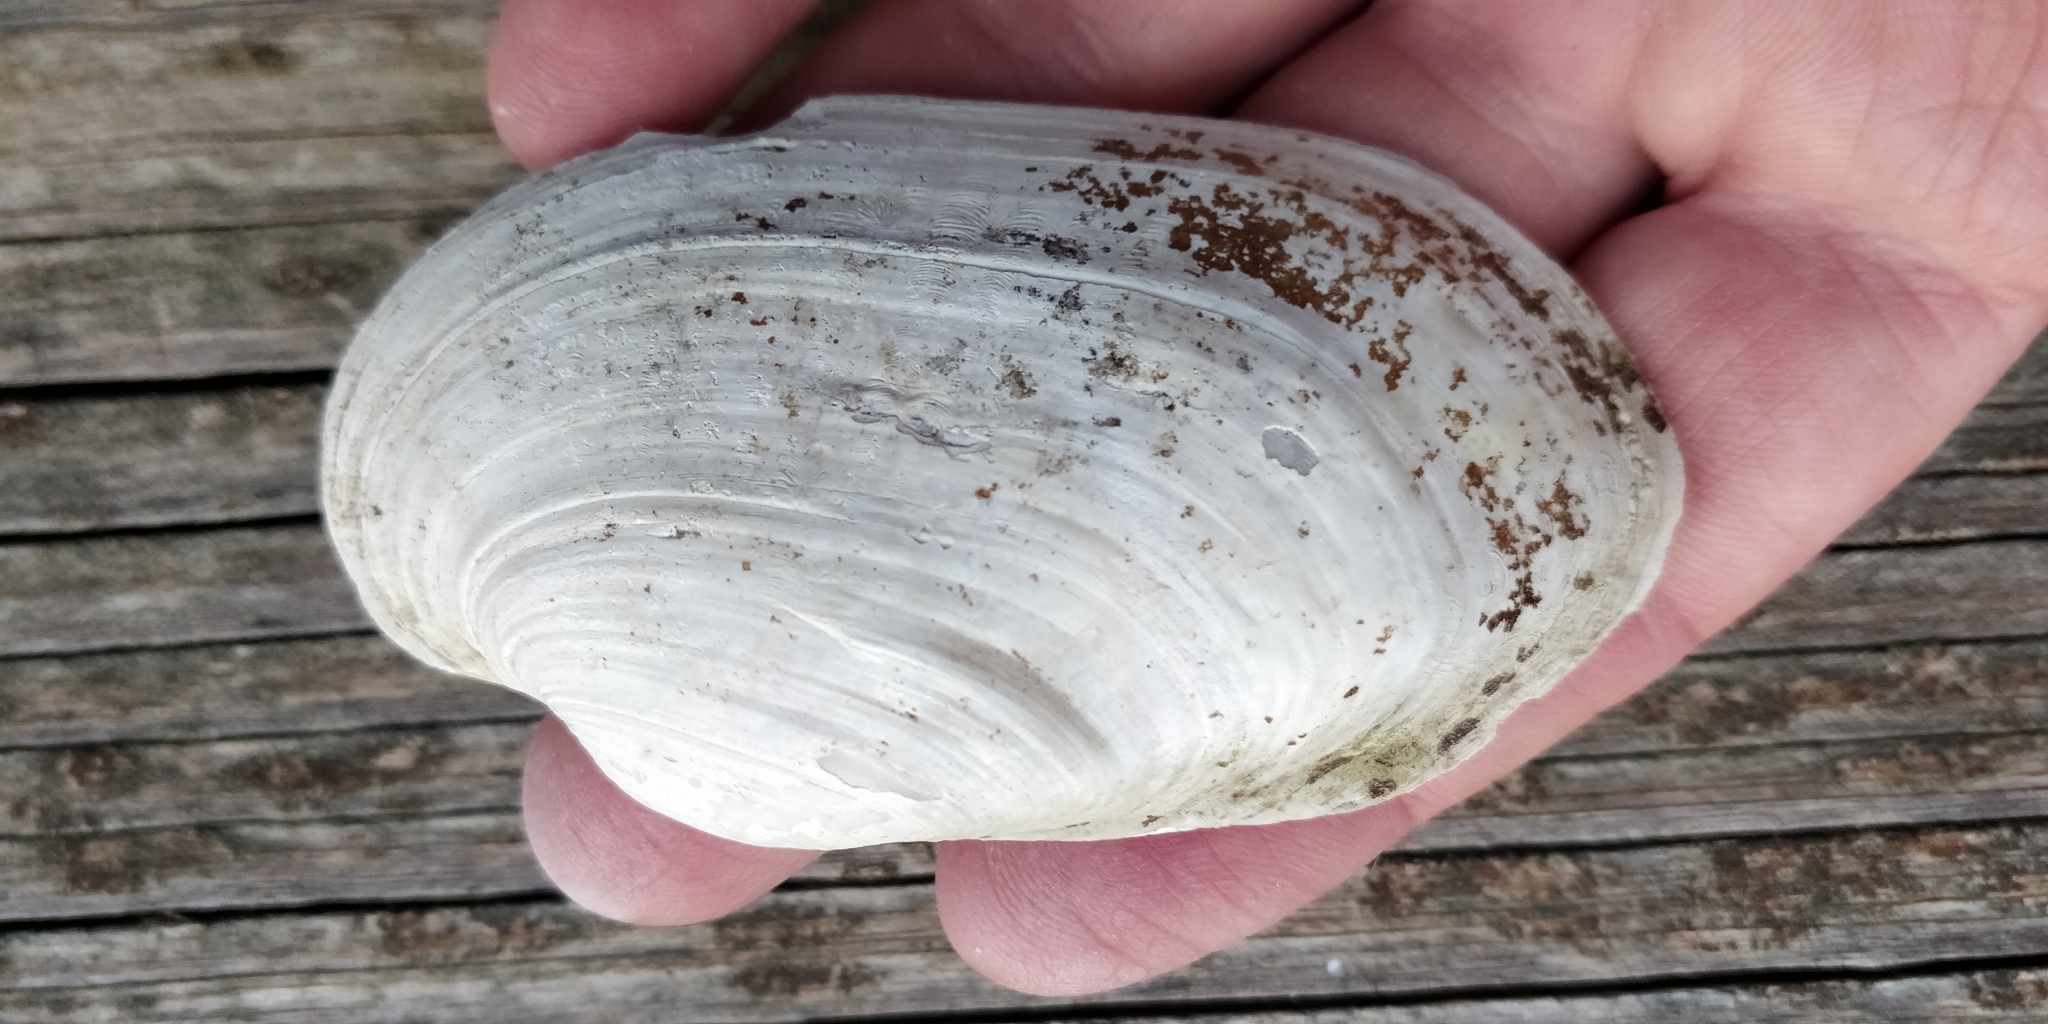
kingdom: Animalia
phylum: Mollusca
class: Bivalvia
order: Unionida
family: Unionidae
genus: Lampsilis
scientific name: Lampsilis siliquoidea
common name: Fatmucket
